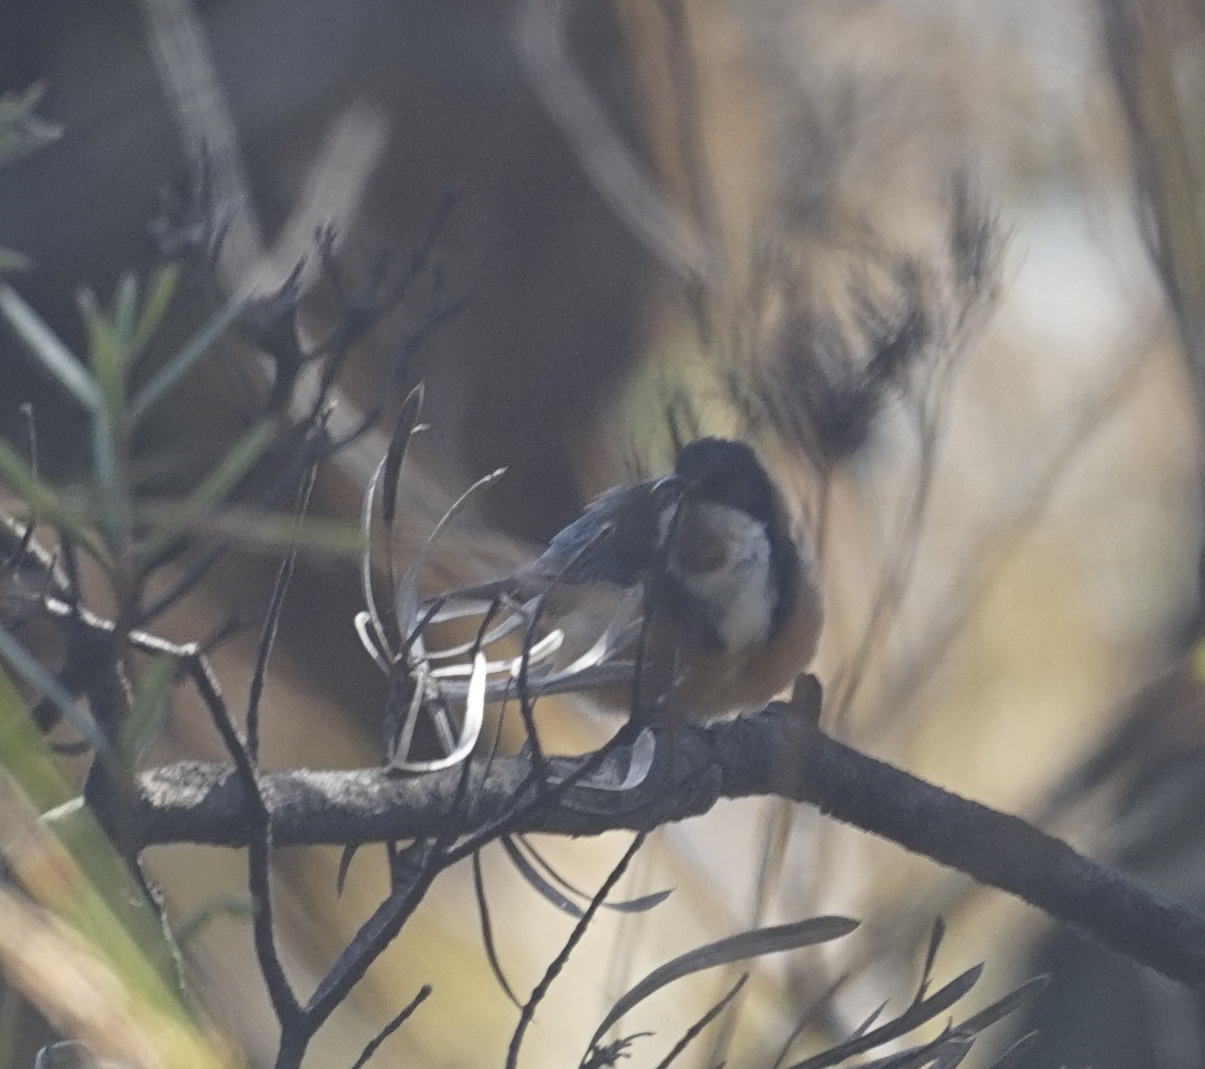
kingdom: Animalia
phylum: Chordata
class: Aves
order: Passeriformes
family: Meliphagidae
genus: Acanthorhynchus
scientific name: Acanthorhynchus tenuirostris
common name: Eastern spinebill
